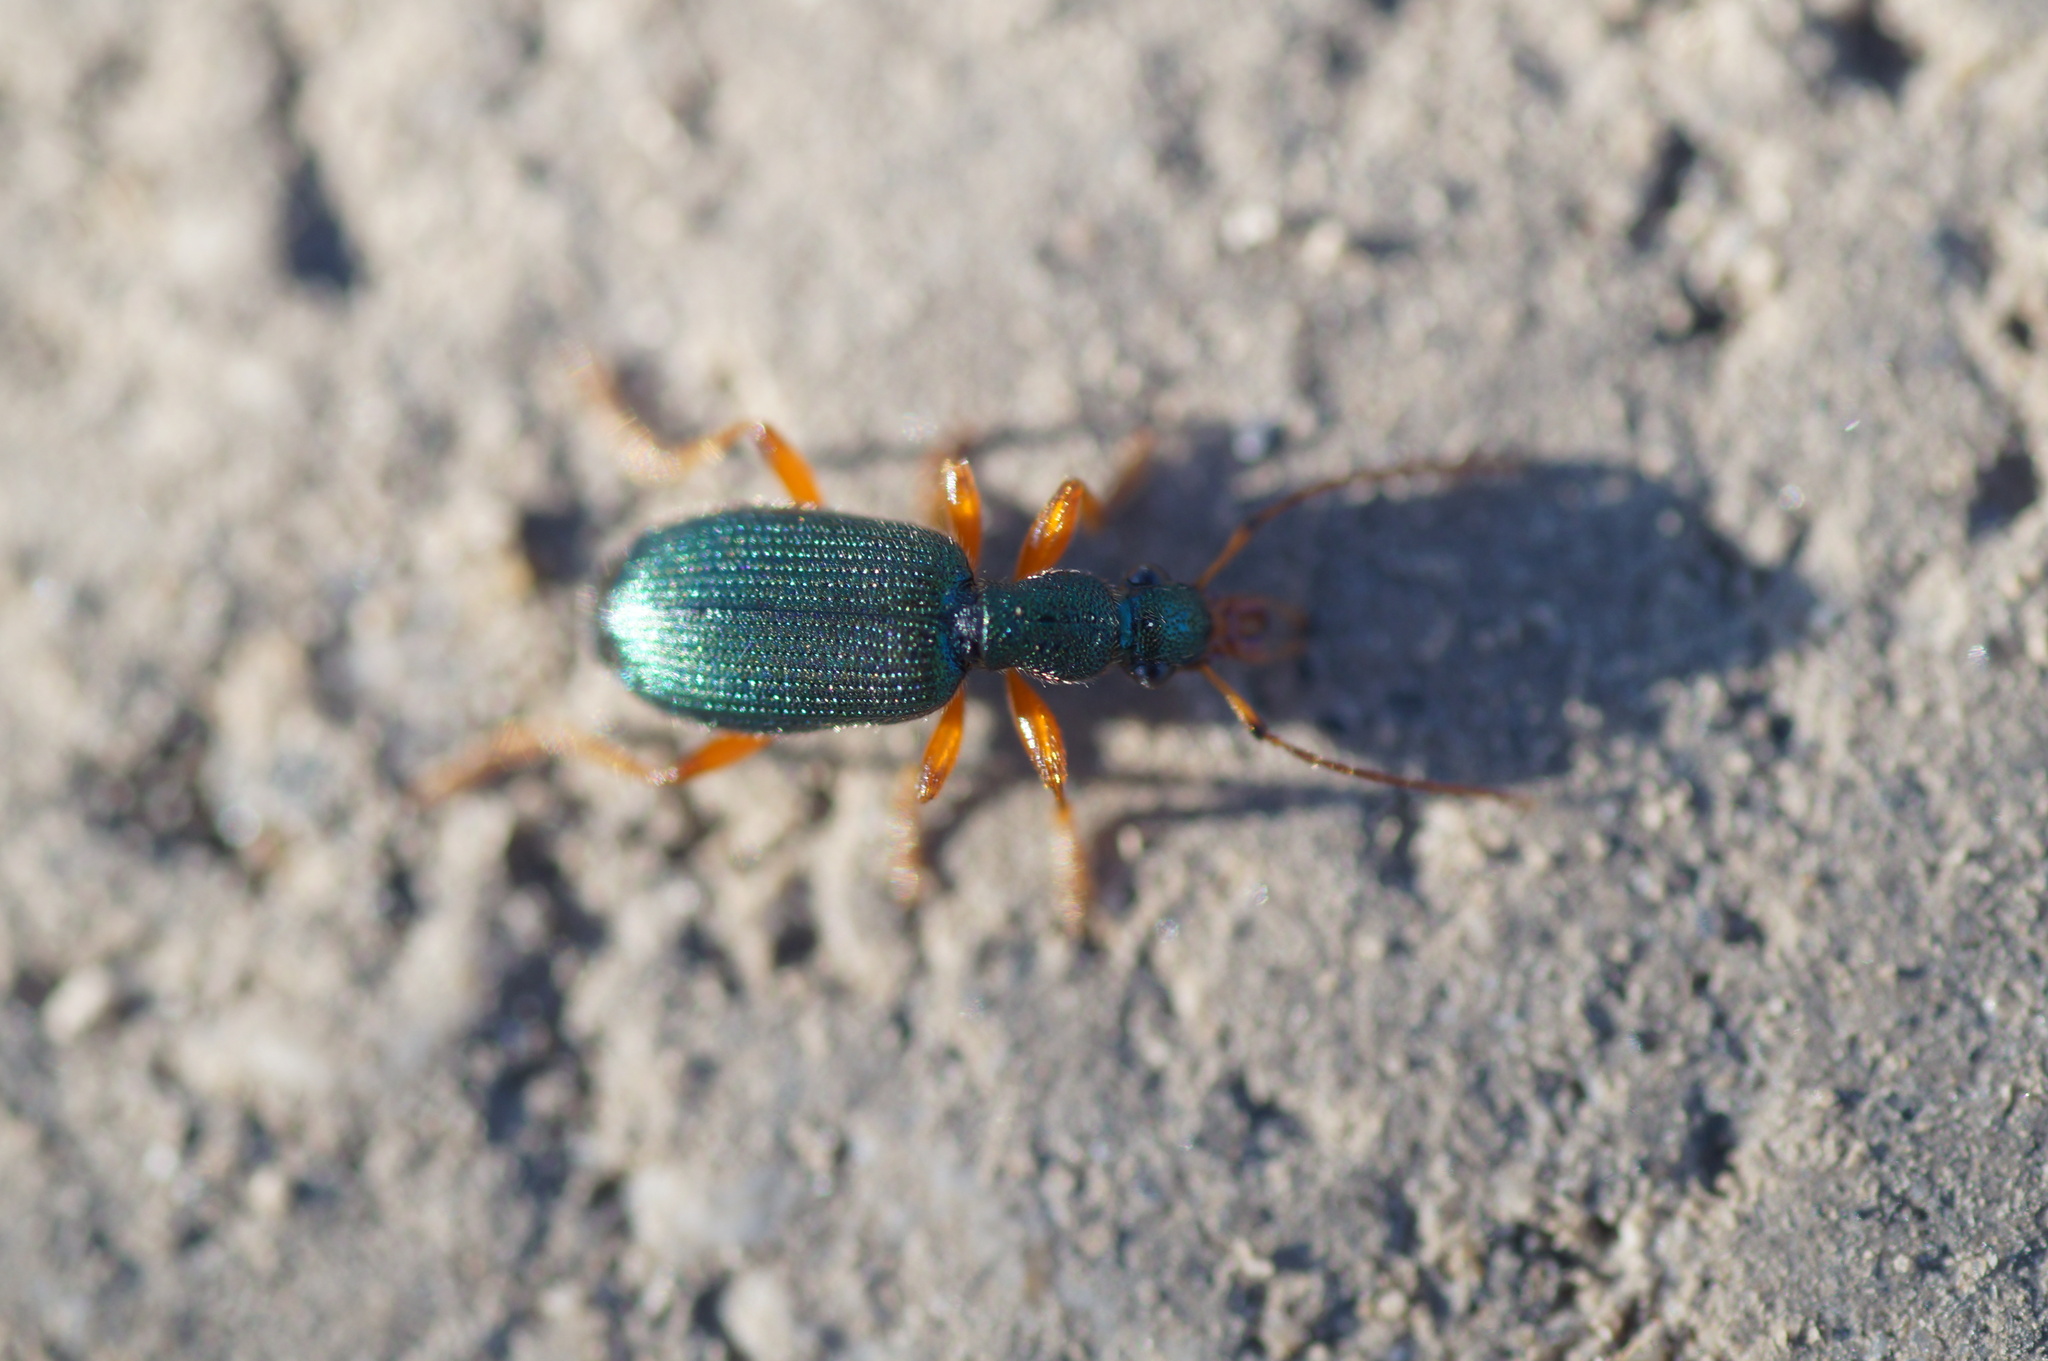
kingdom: Animalia
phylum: Arthropoda
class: Insecta
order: Coleoptera
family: Carabidae
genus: Drypta
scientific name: Drypta dentata
